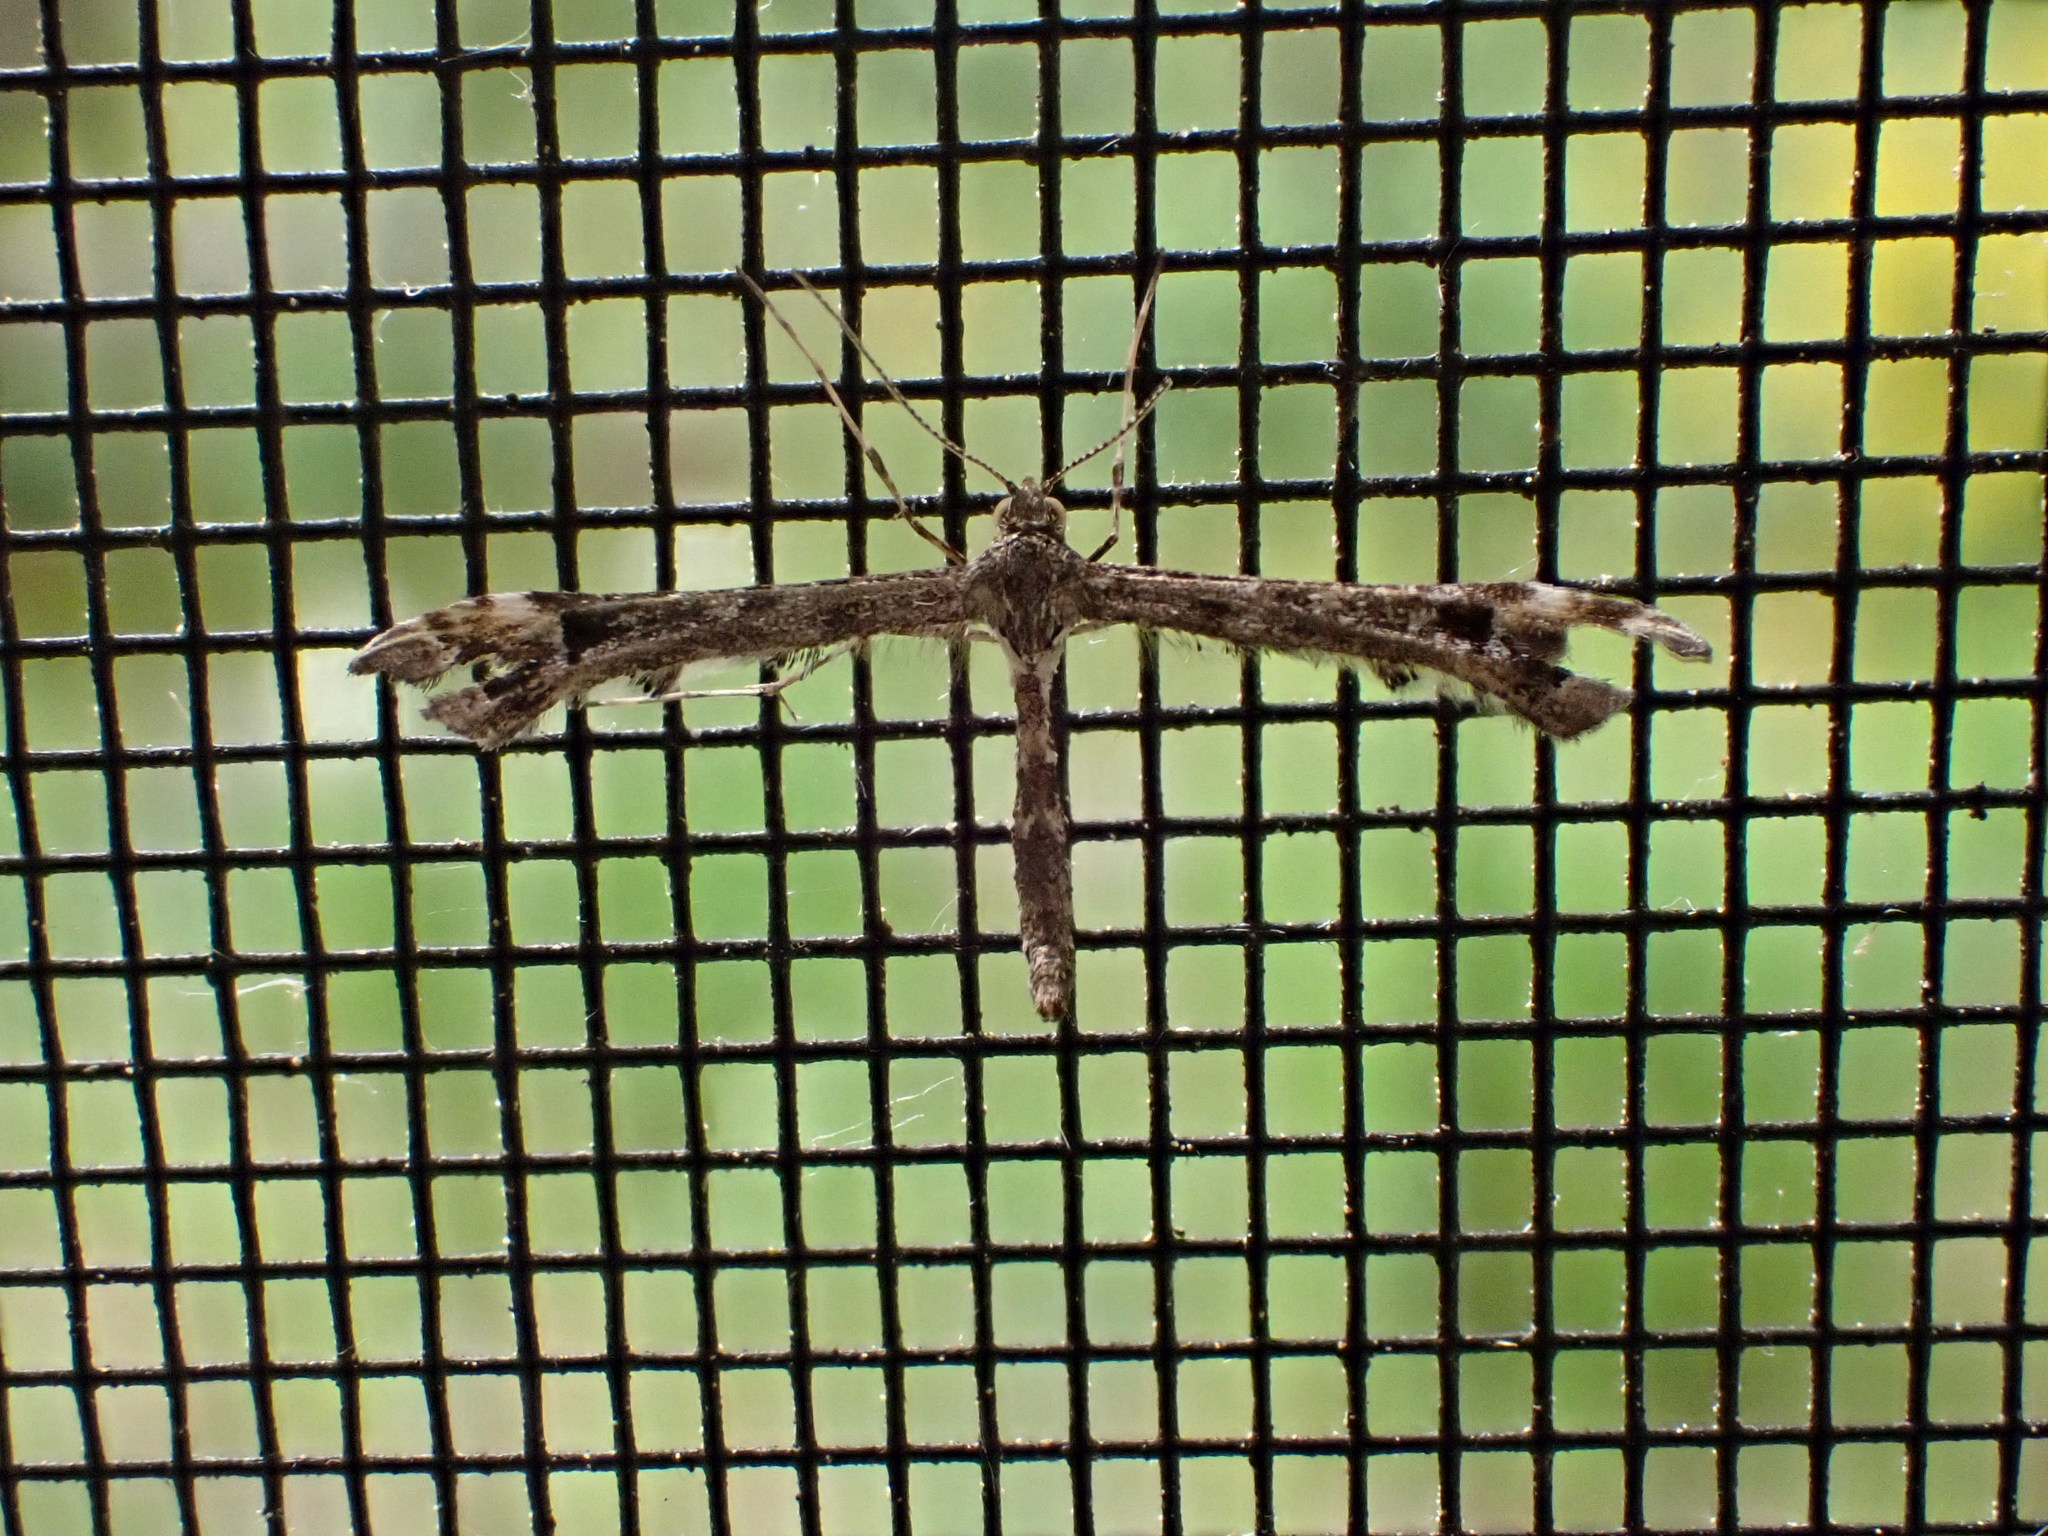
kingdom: Animalia
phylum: Arthropoda
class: Insecta
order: Lepidoptera
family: Pterophoridae
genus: Amblyptilia
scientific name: Amblyptilia pica
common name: Geranium plume moth
